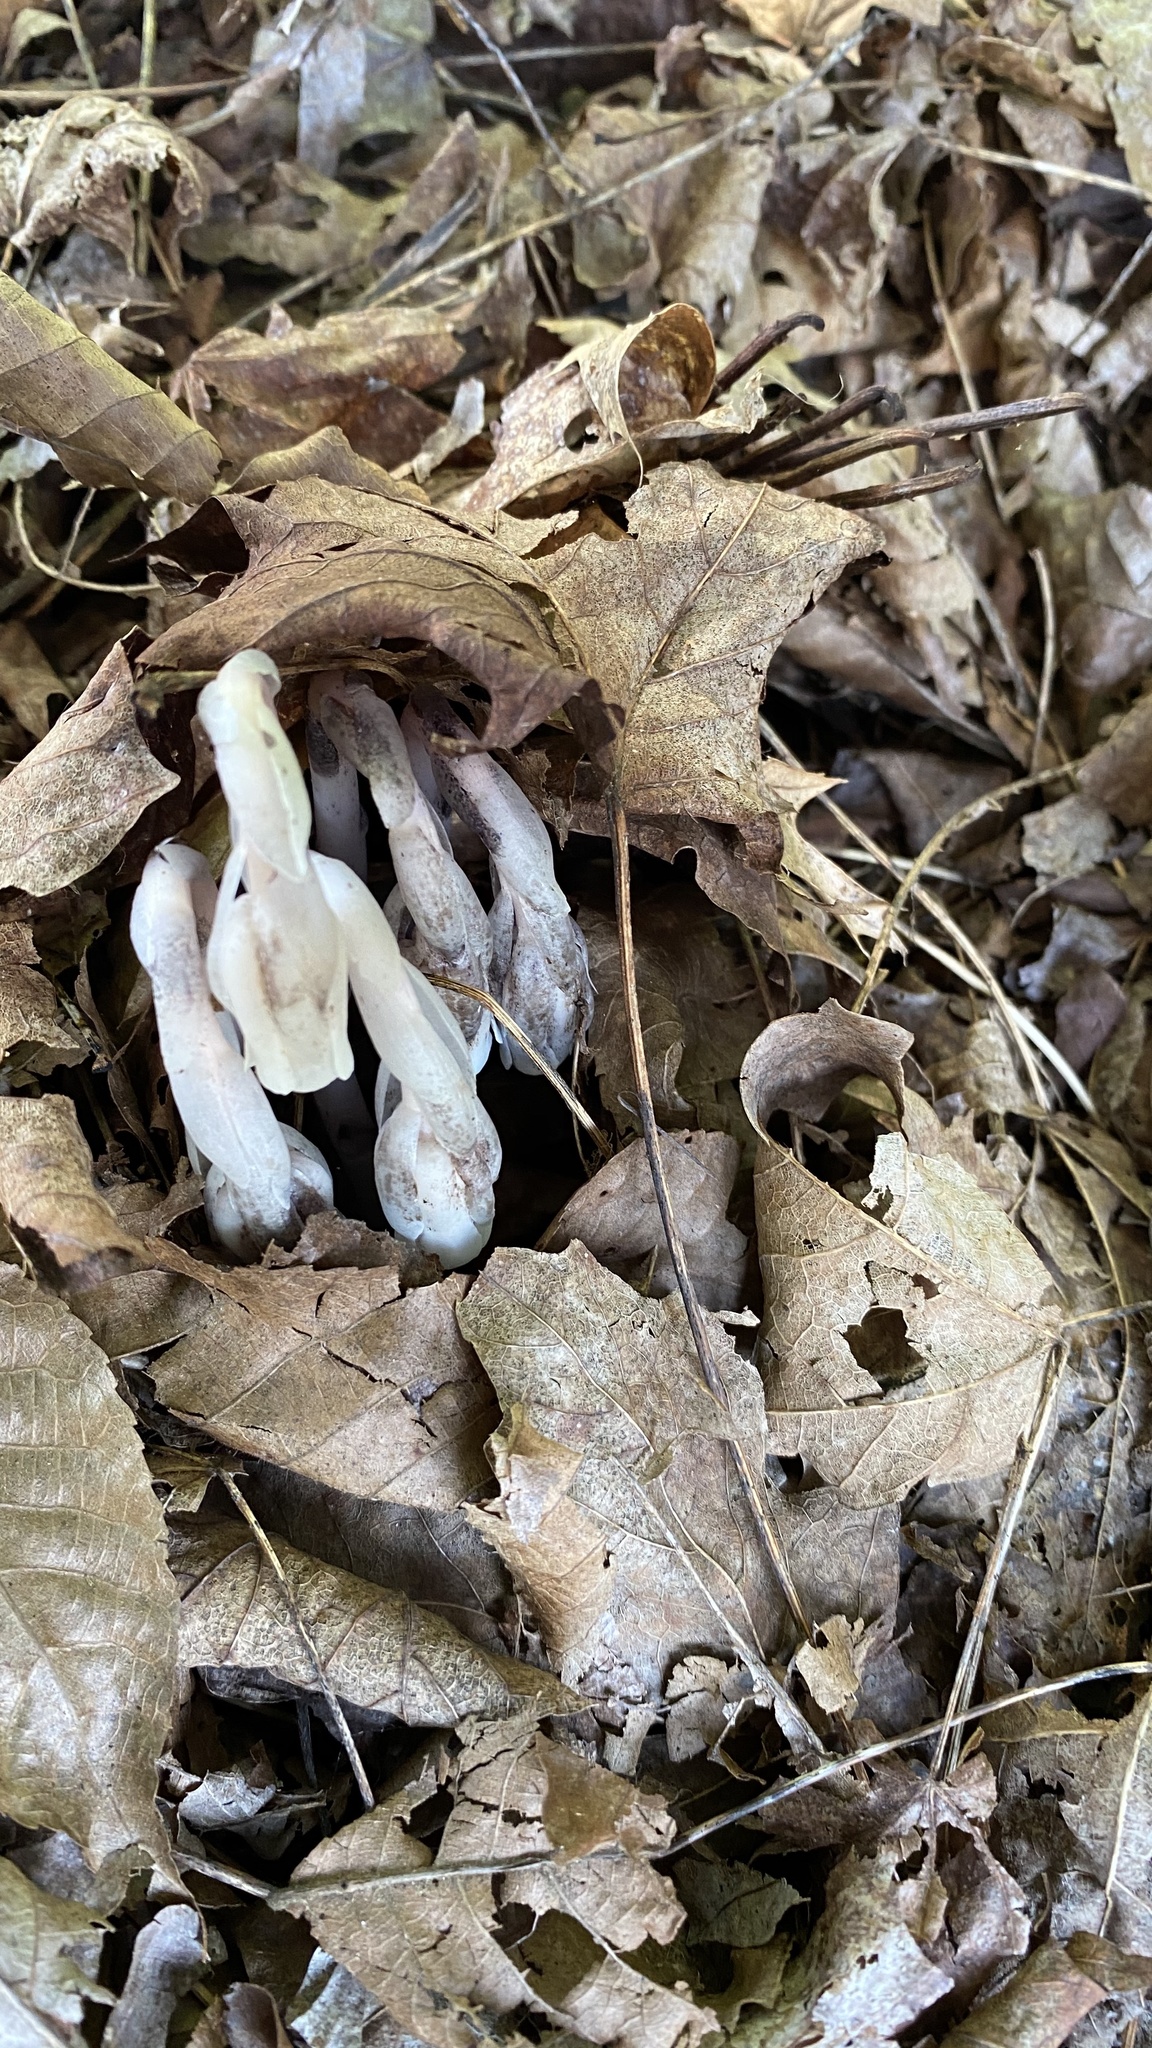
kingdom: Plantae
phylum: Tracheophyta
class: Magnoliopsida
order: Ericales
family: Ericaceae
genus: Monotropa
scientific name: Monotropa uniflora
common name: Convulsion root
